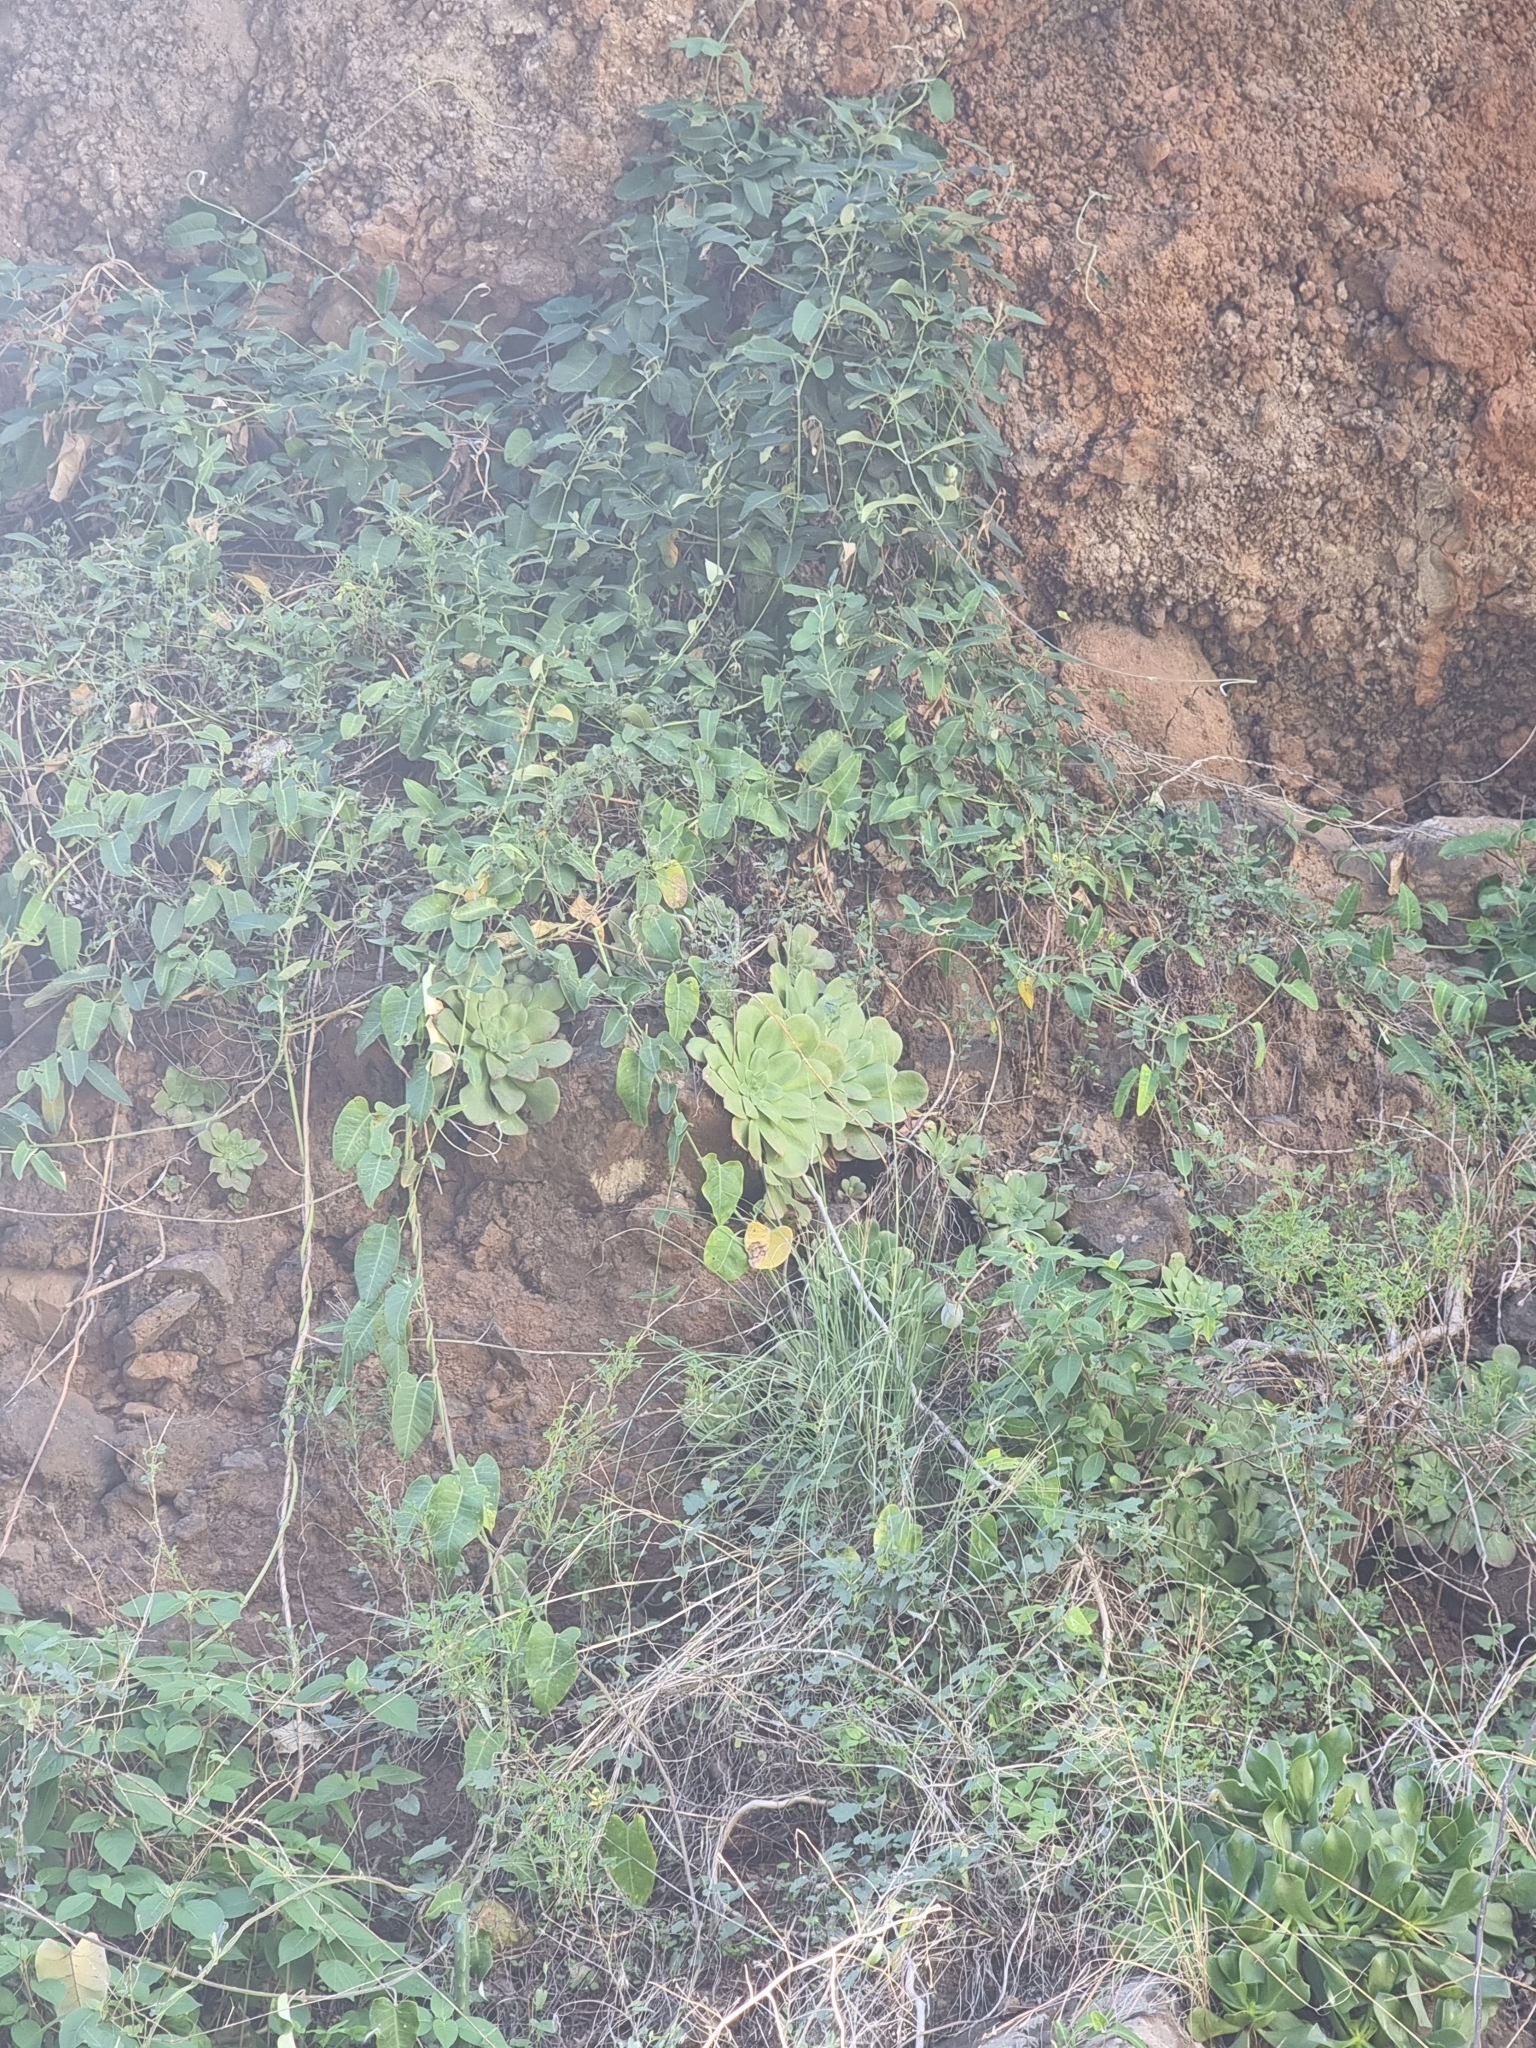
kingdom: Plantae
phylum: Tracheophyta
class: Magnoliopsida
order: Saxifragales
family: Crassulaceae
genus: Aeonium
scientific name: Aeonium glandulosum
